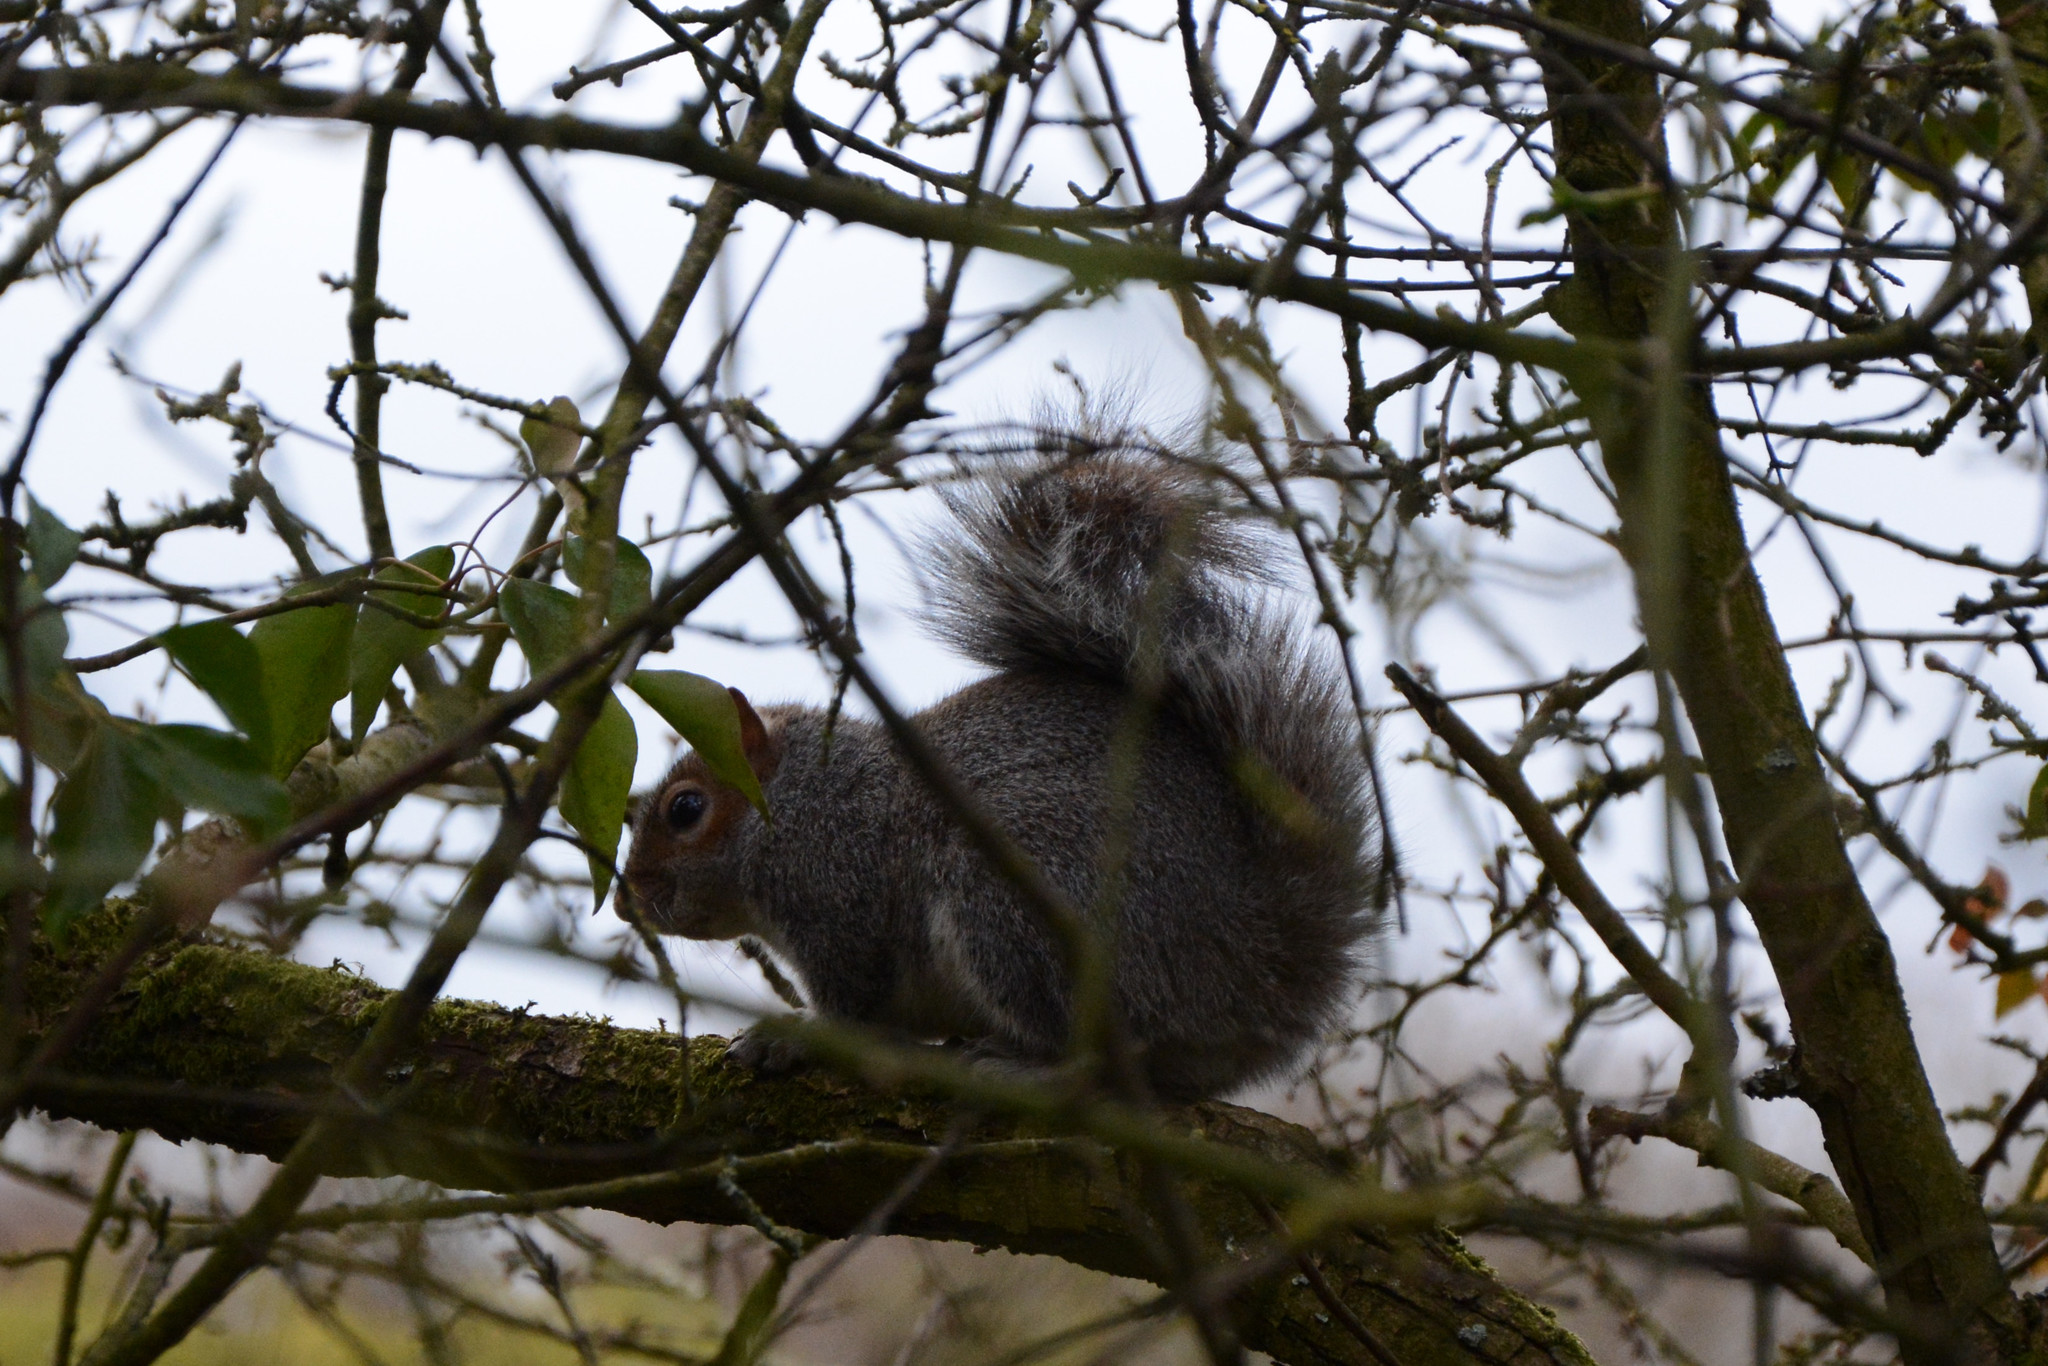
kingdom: Animalia
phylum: Chordata
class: Mammalia
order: Rodentia
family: Sciuridae
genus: Sciurus
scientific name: Sciurus carolinensis
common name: Eastern gray squirrel
